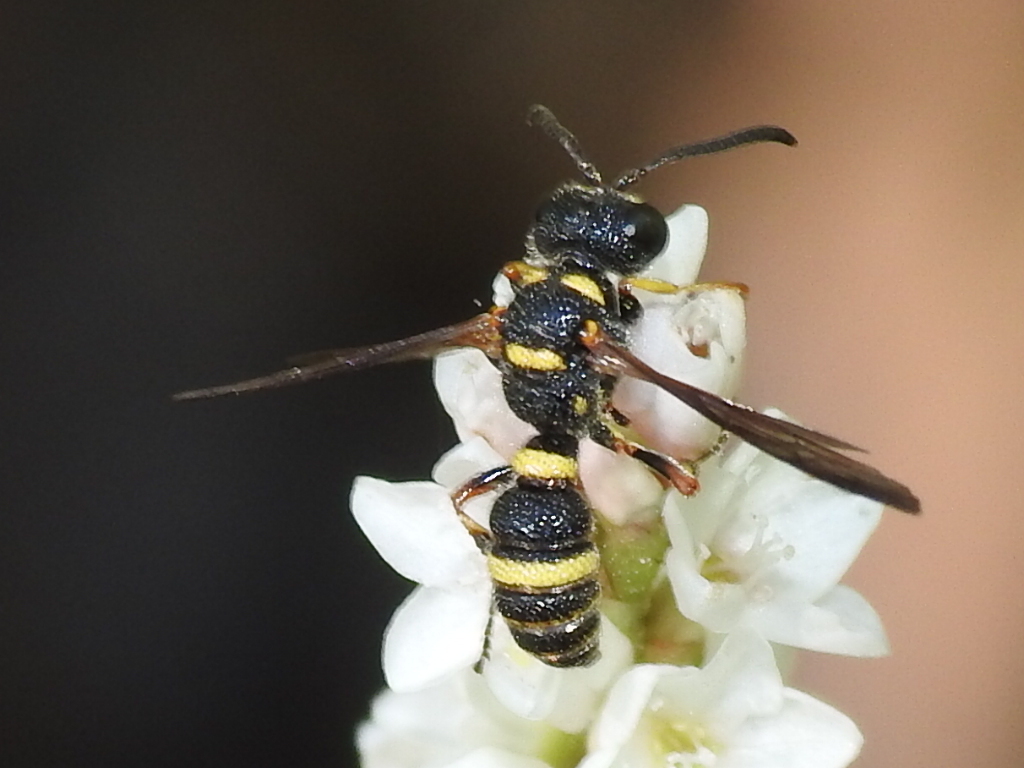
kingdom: Animalia
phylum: Arthropoda
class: Insecta
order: Hymenoptera
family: Crabronidae
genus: Cerceris
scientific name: Cerceris insolita
